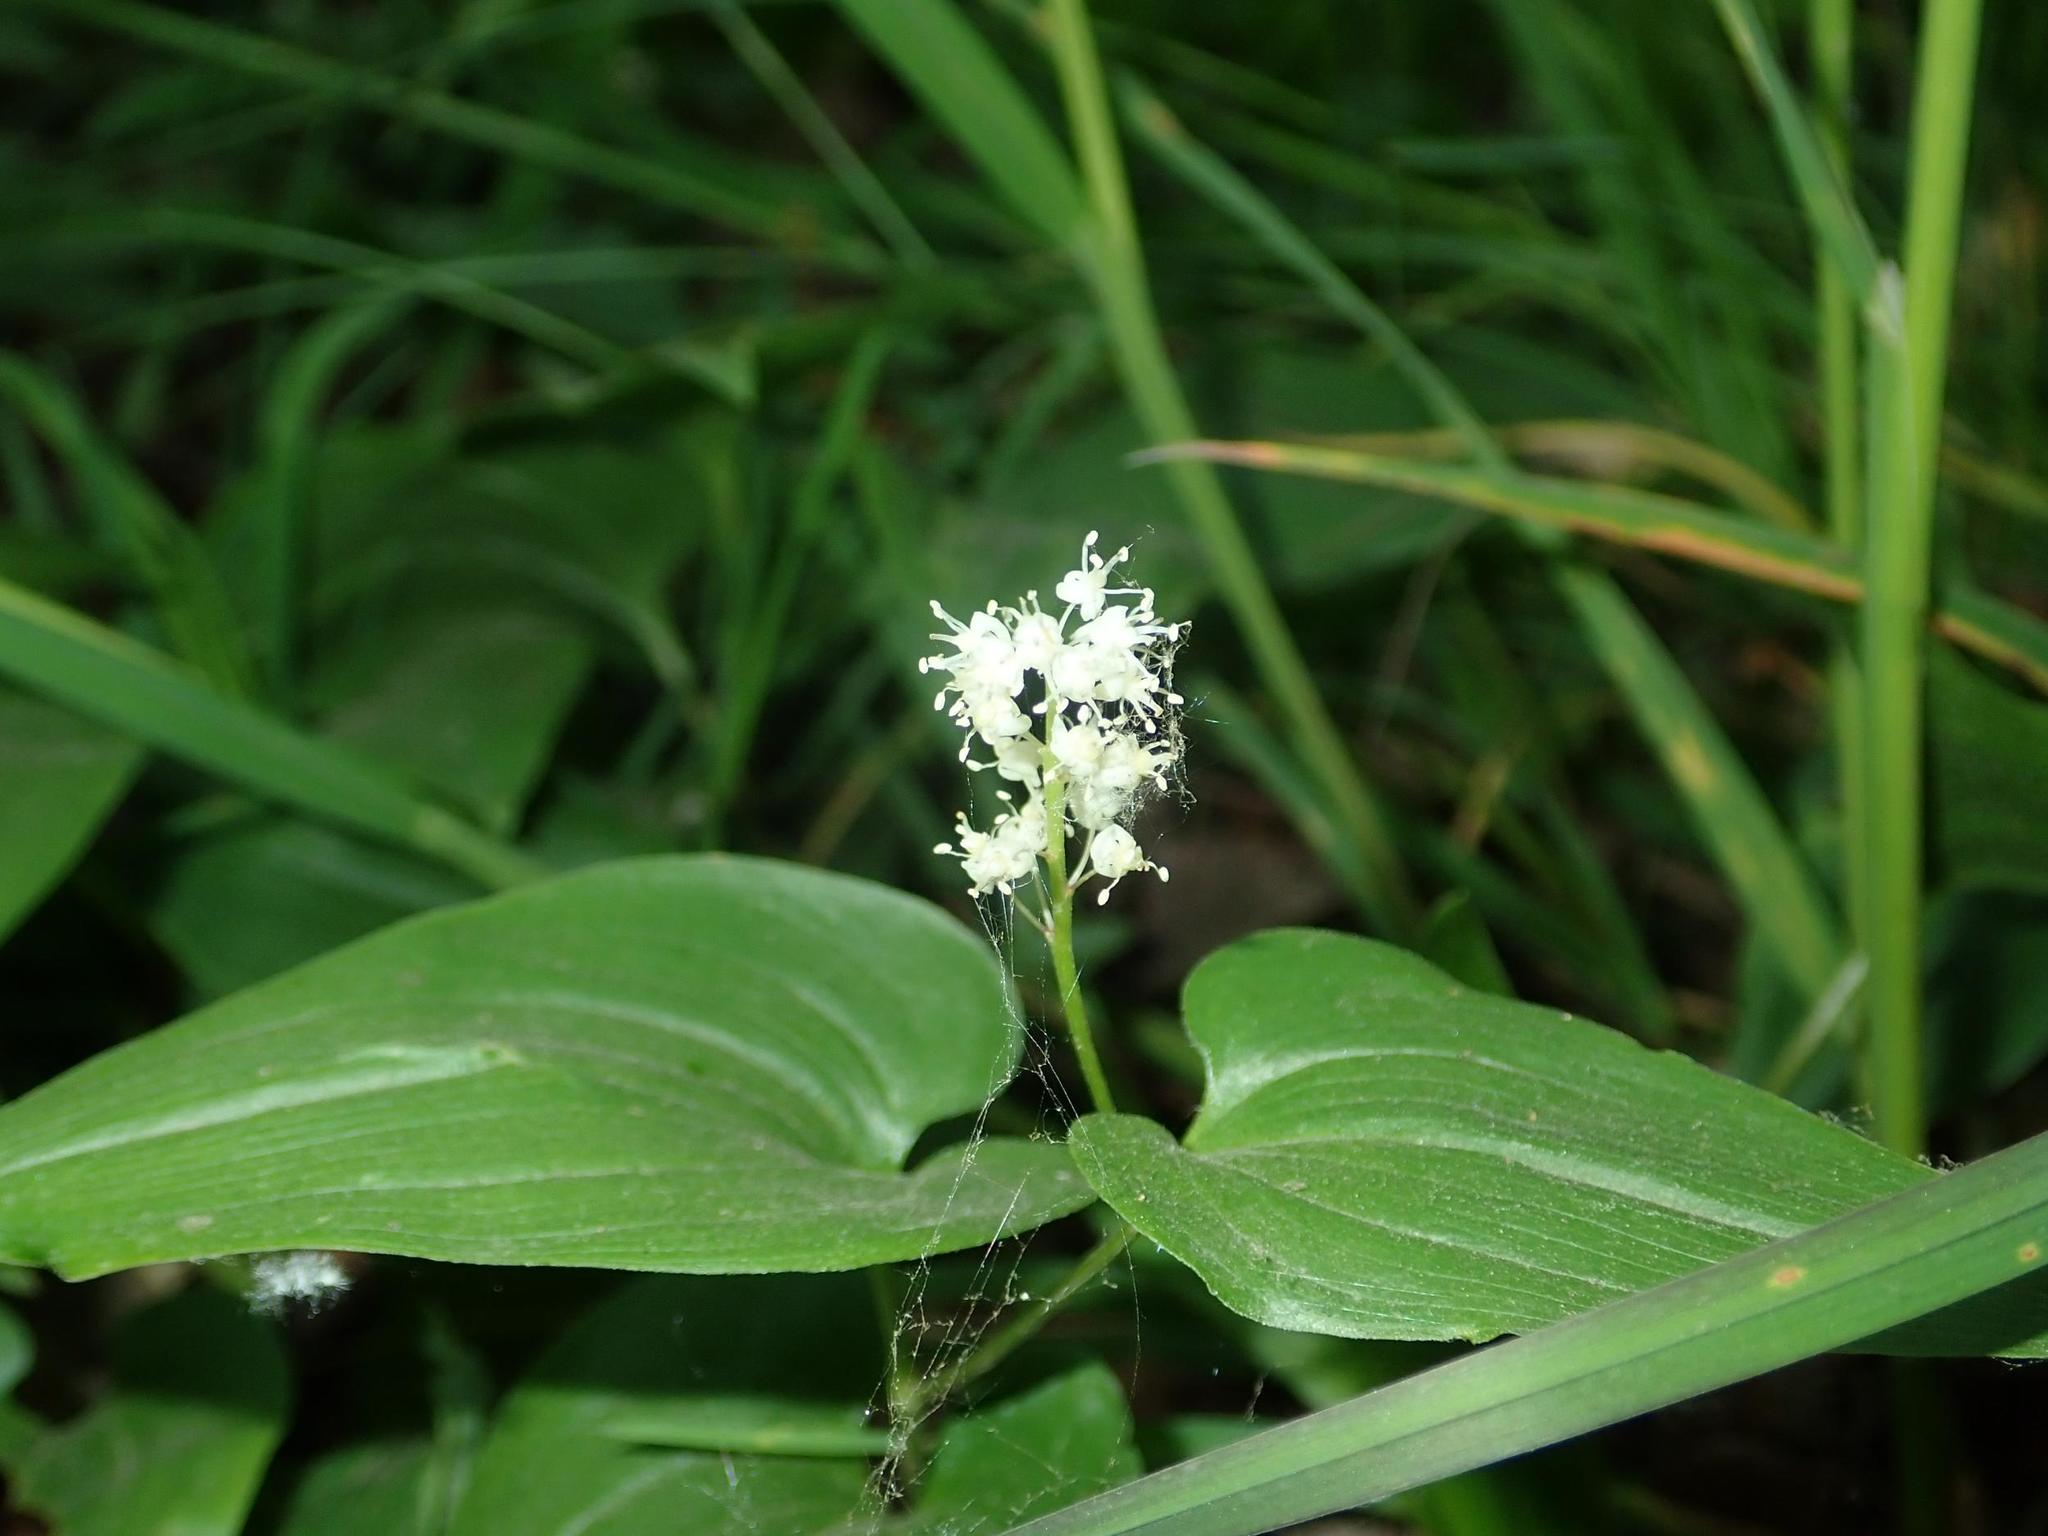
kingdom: Plantae
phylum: Tracheophyta
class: Liliopsida
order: Asparagales
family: Asparagaceae
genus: Maianthemum
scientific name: Maianthemum bifolium
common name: May lily
